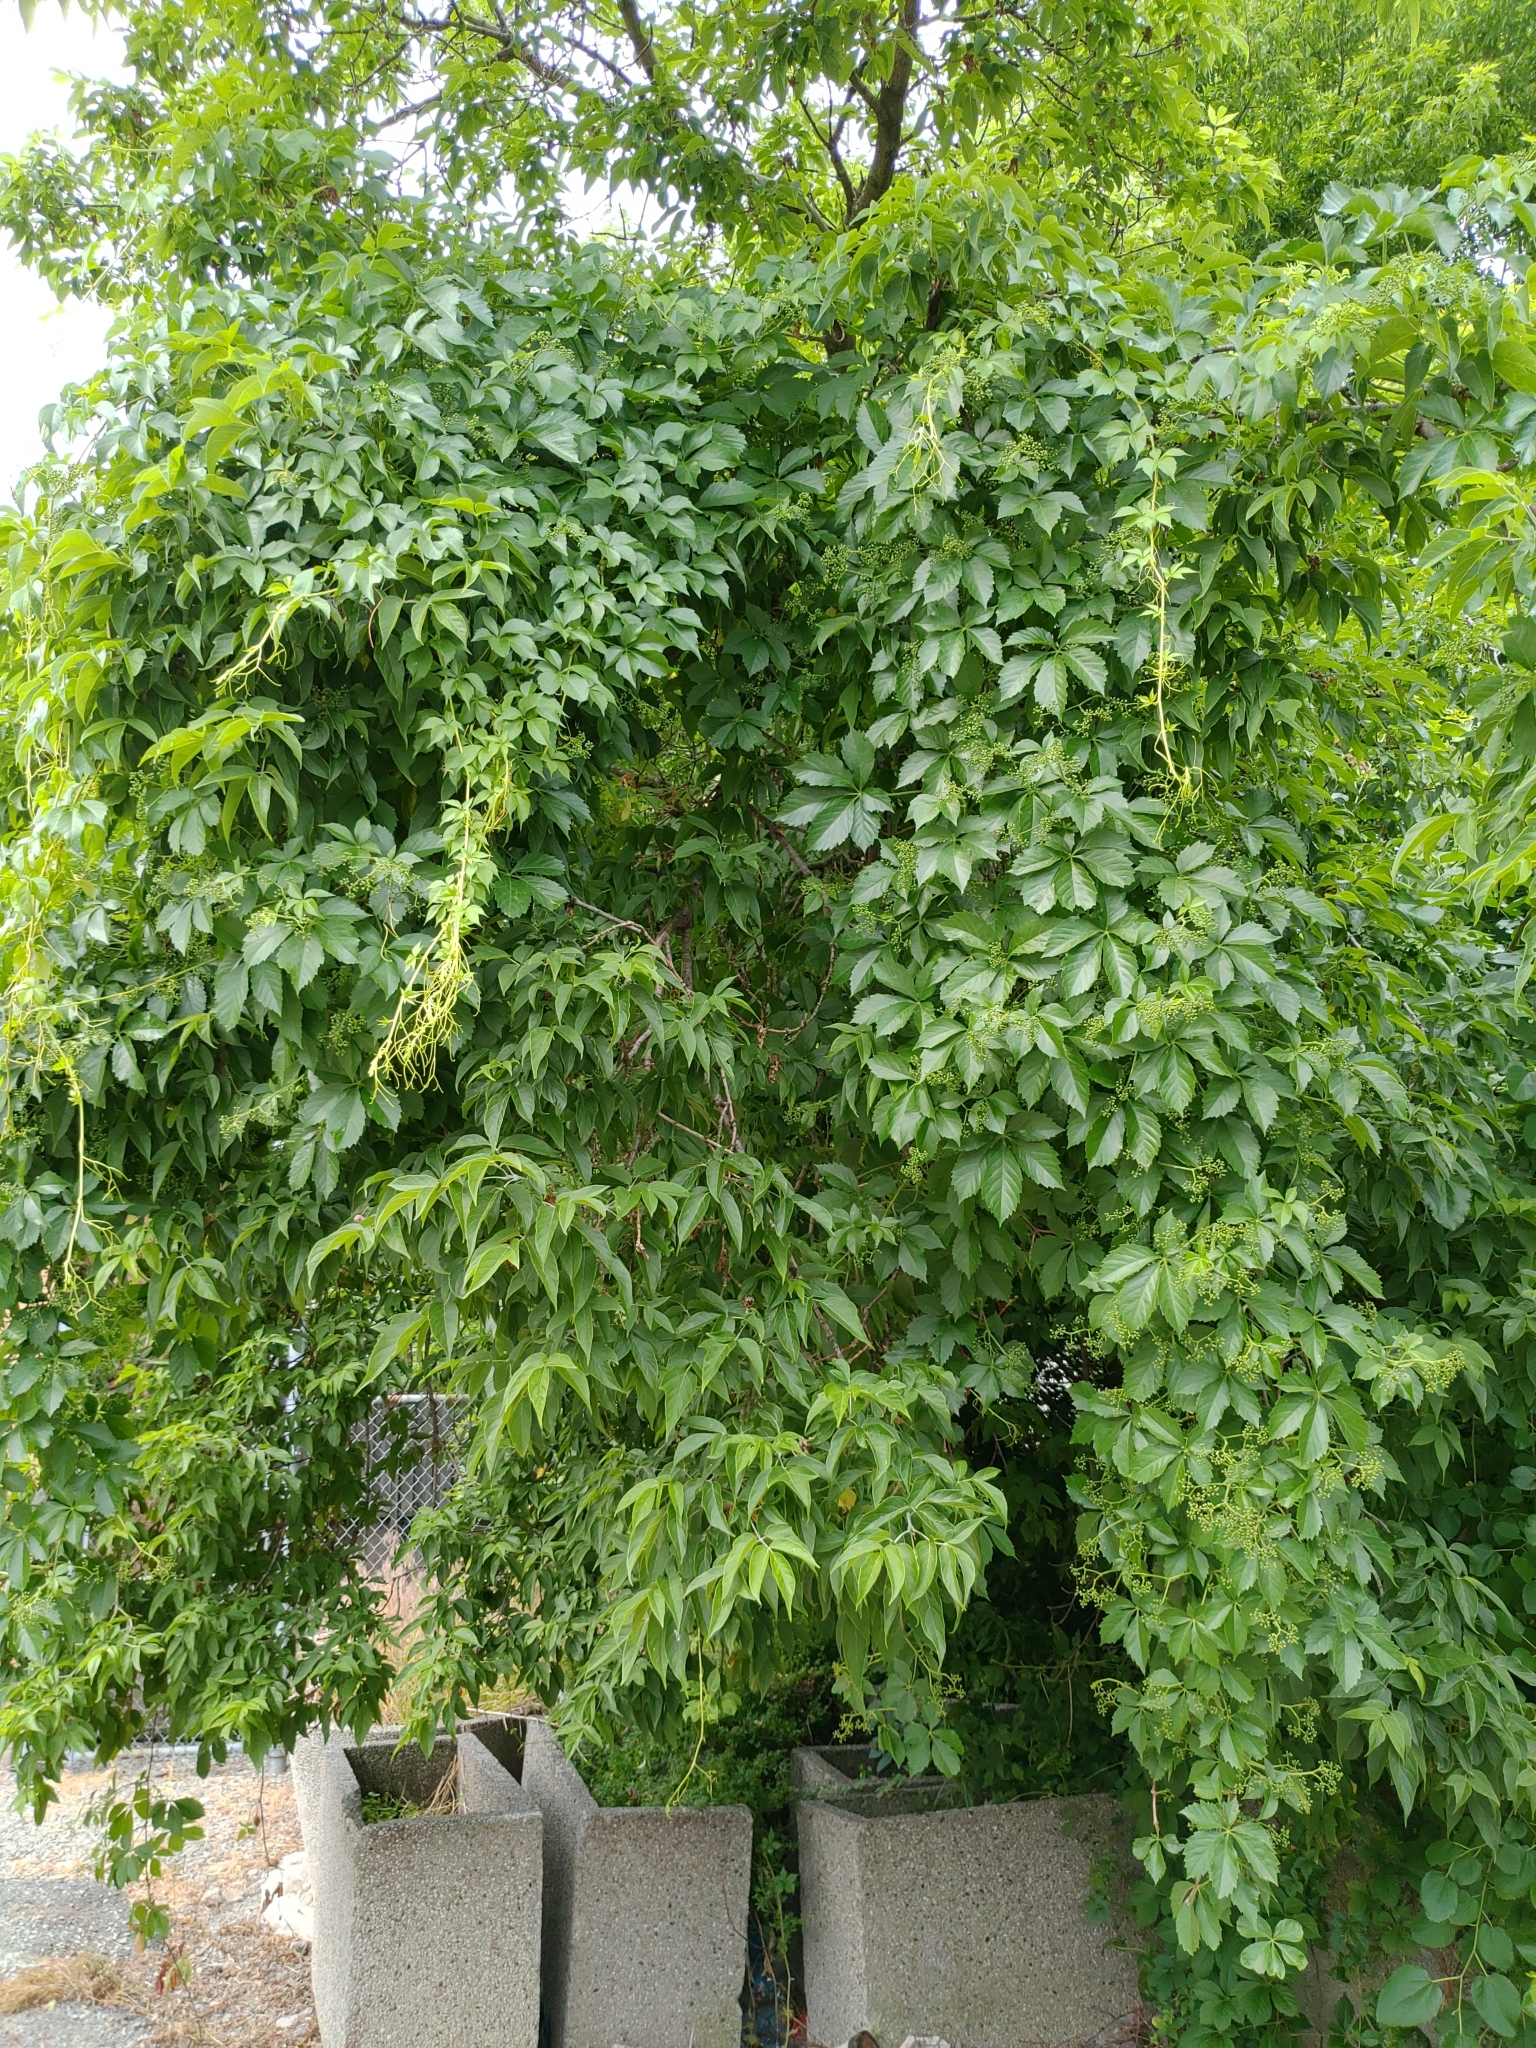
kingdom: Plantae
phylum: Tracheophyta
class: Magnoliopsida
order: Sapindales
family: Sapindaceae
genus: Acer
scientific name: Acer negundo
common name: Ashleaf maple
